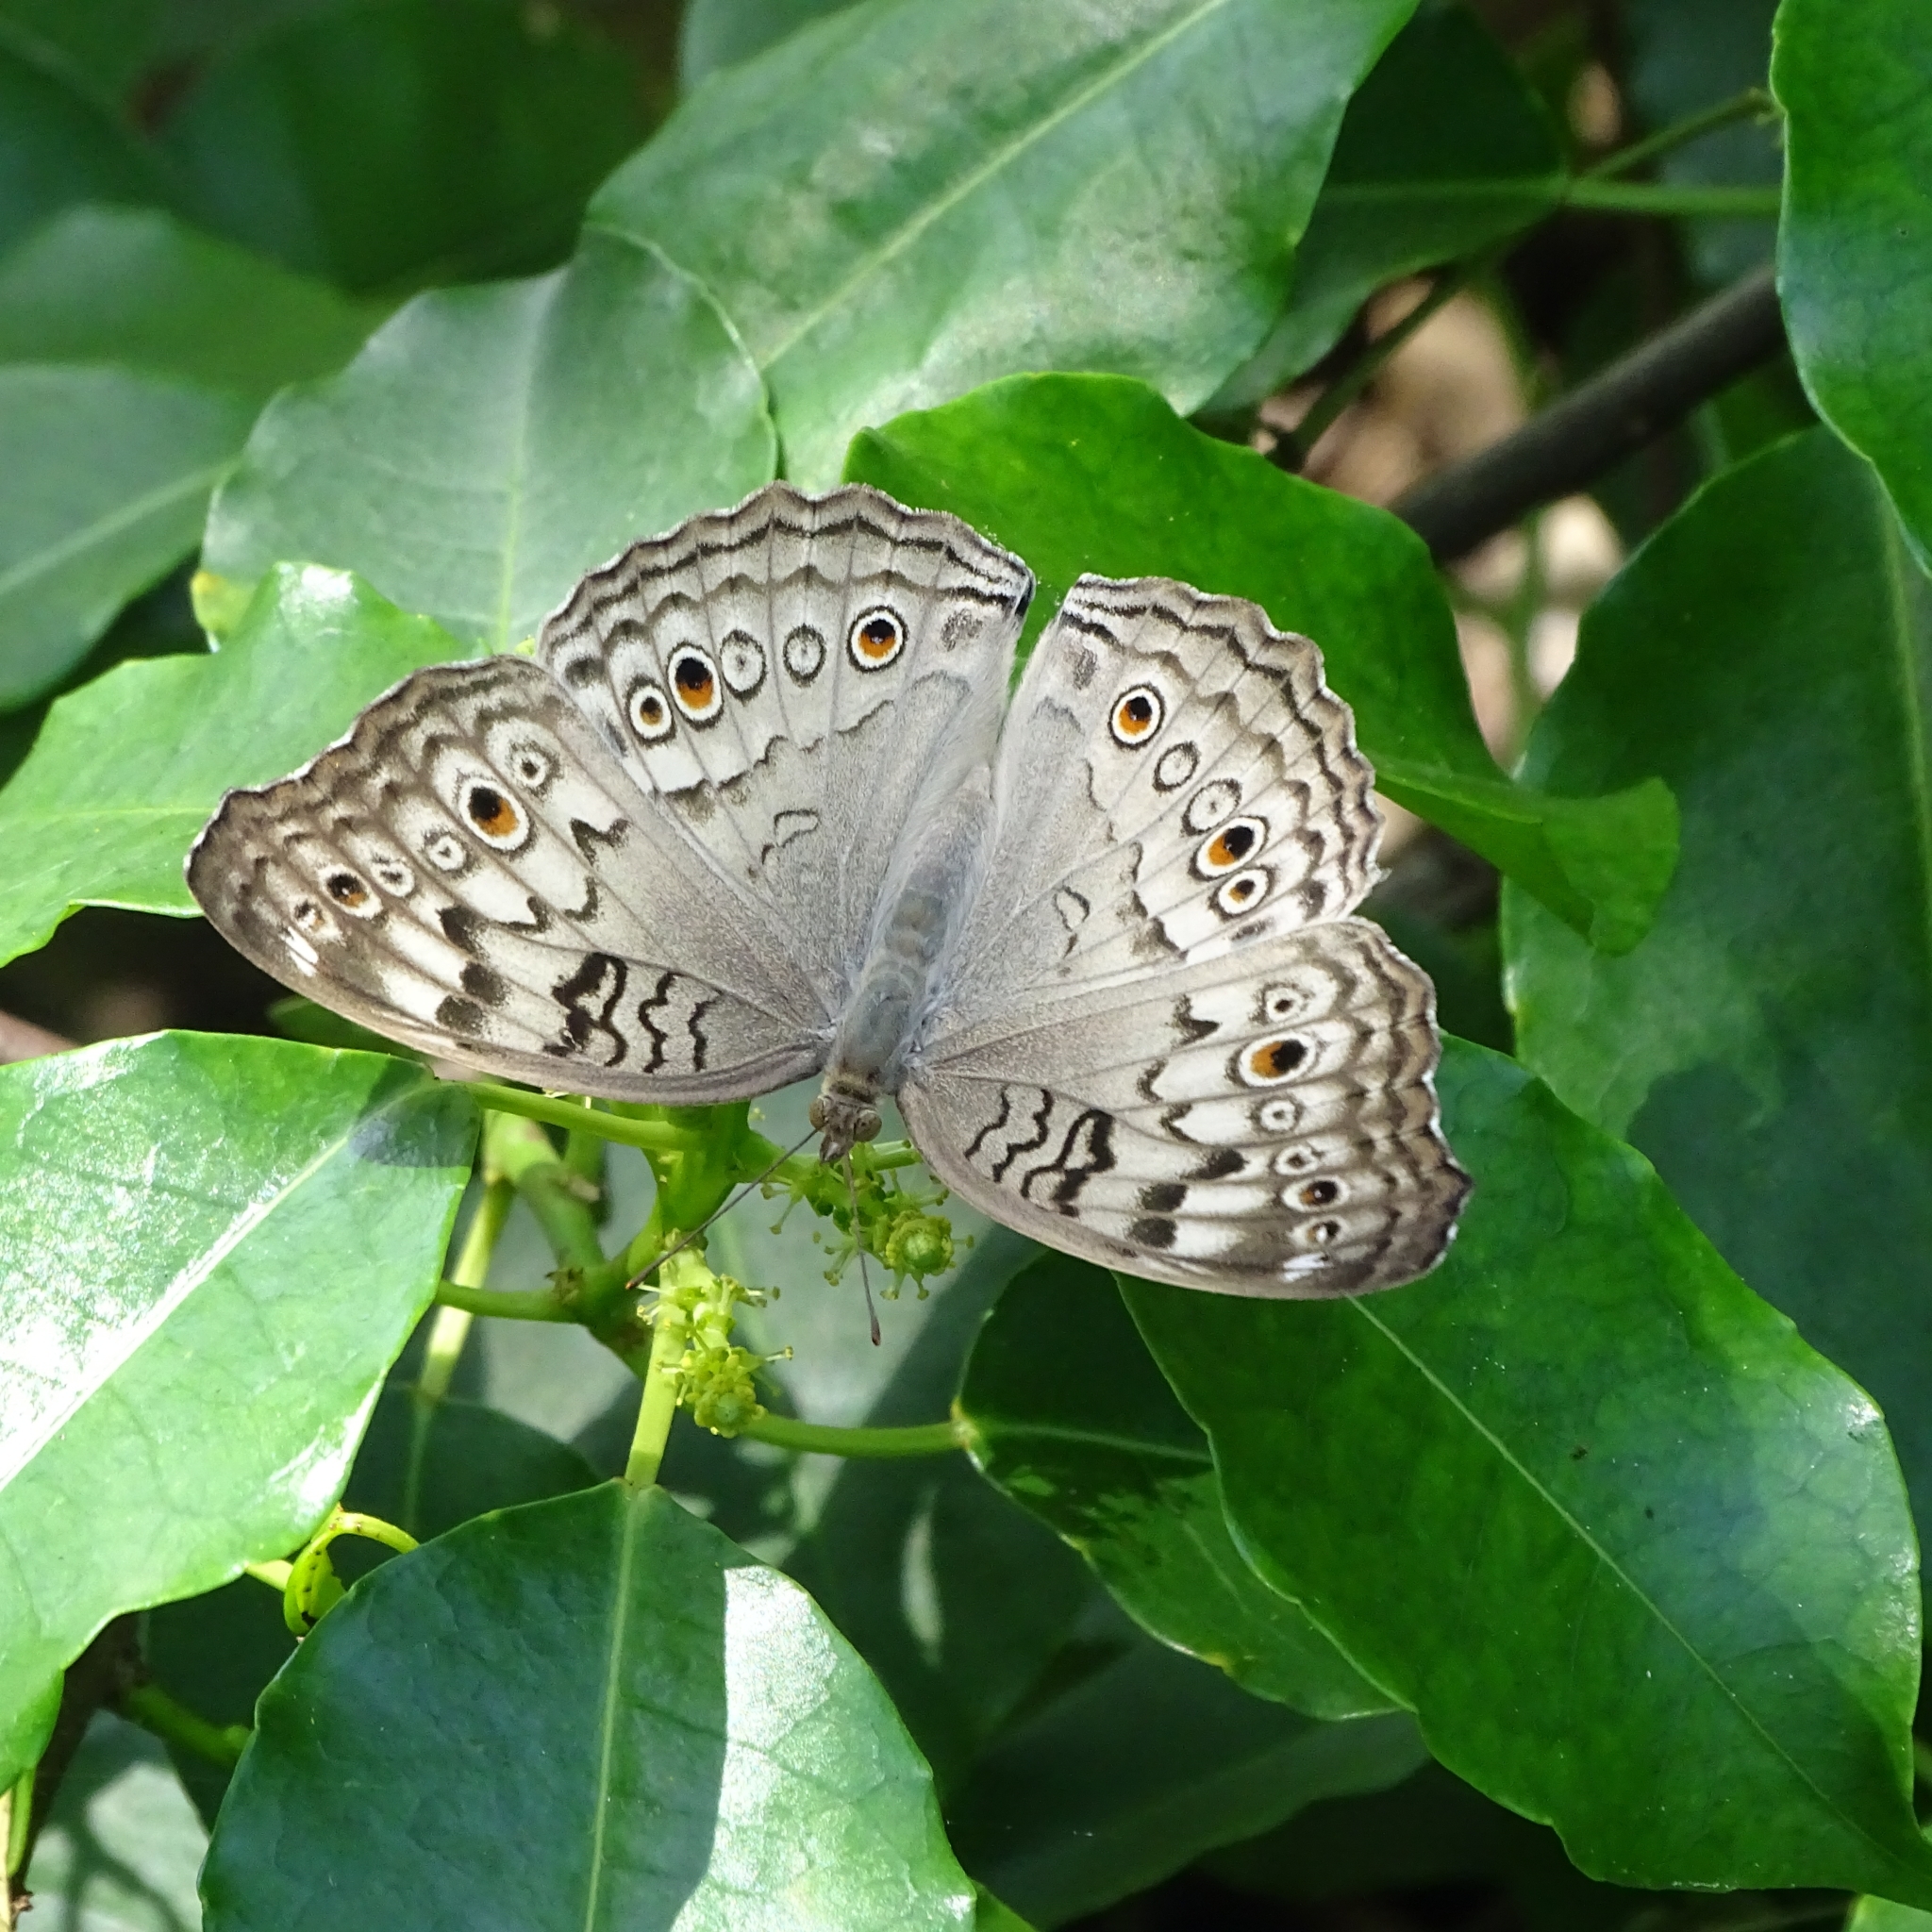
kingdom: Animalia
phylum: Arthropoda
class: Insecta
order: Lepidoptera
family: Nymphalidae
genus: Junonia
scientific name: Junonia atlites
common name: Grey pansy
